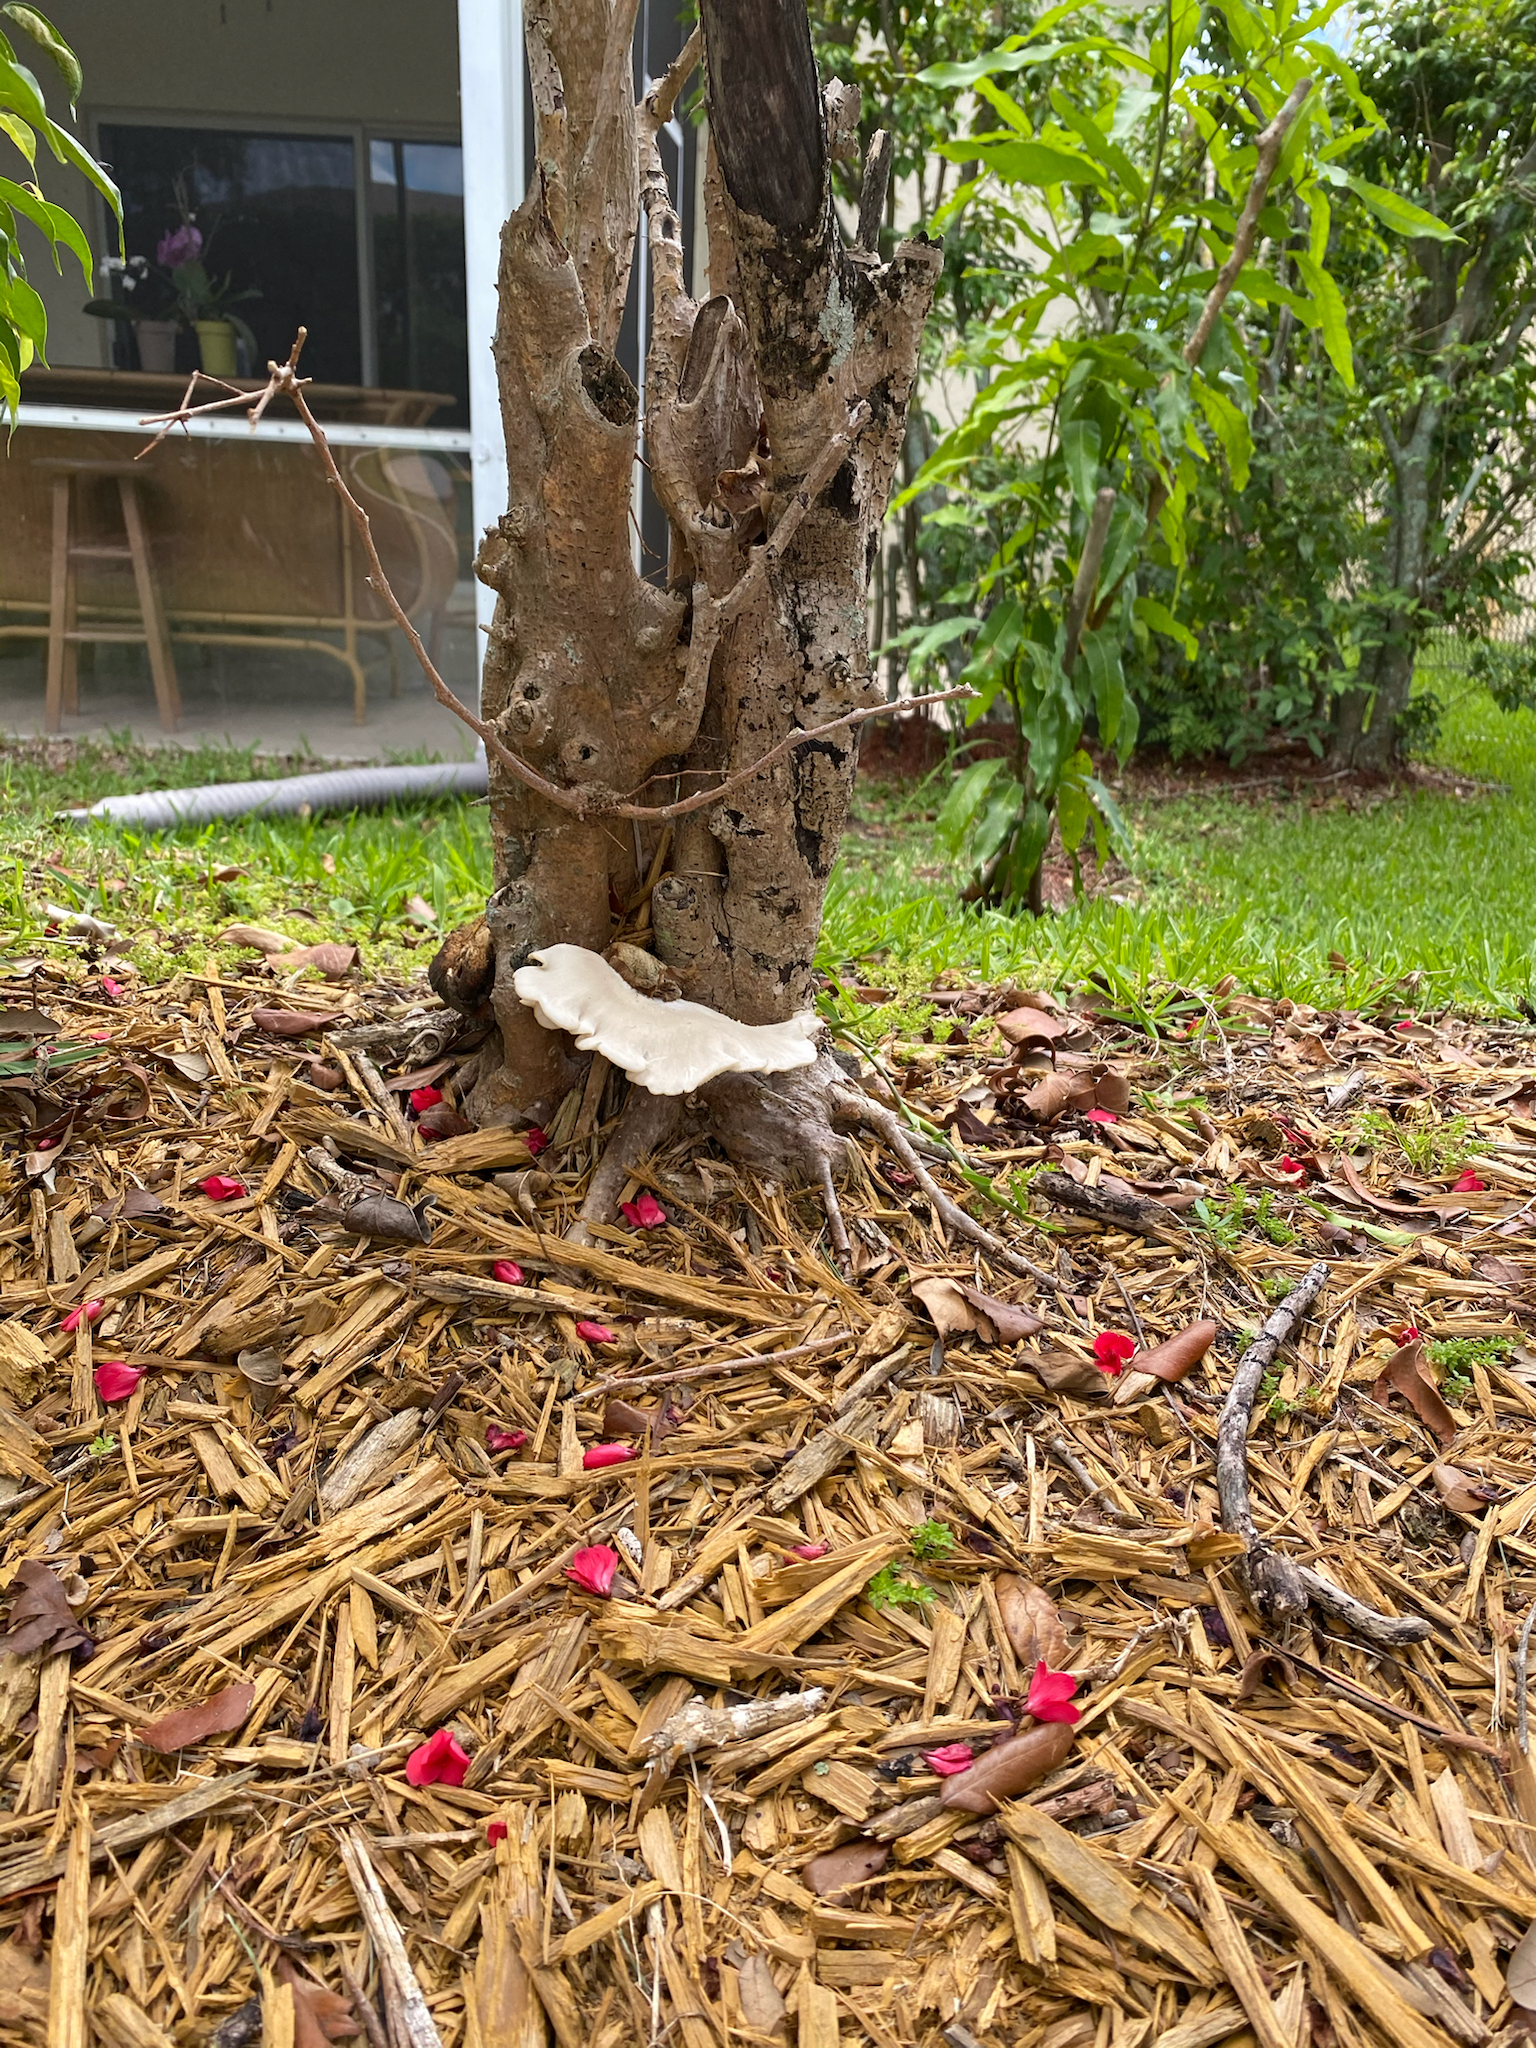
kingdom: Fungi
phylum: Basidiomycota
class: Agaricomycetes
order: Agaricales
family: Pleurotaceae
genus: Pleurotus
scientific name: Pleurotus pulmonarius
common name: Pale oyster
